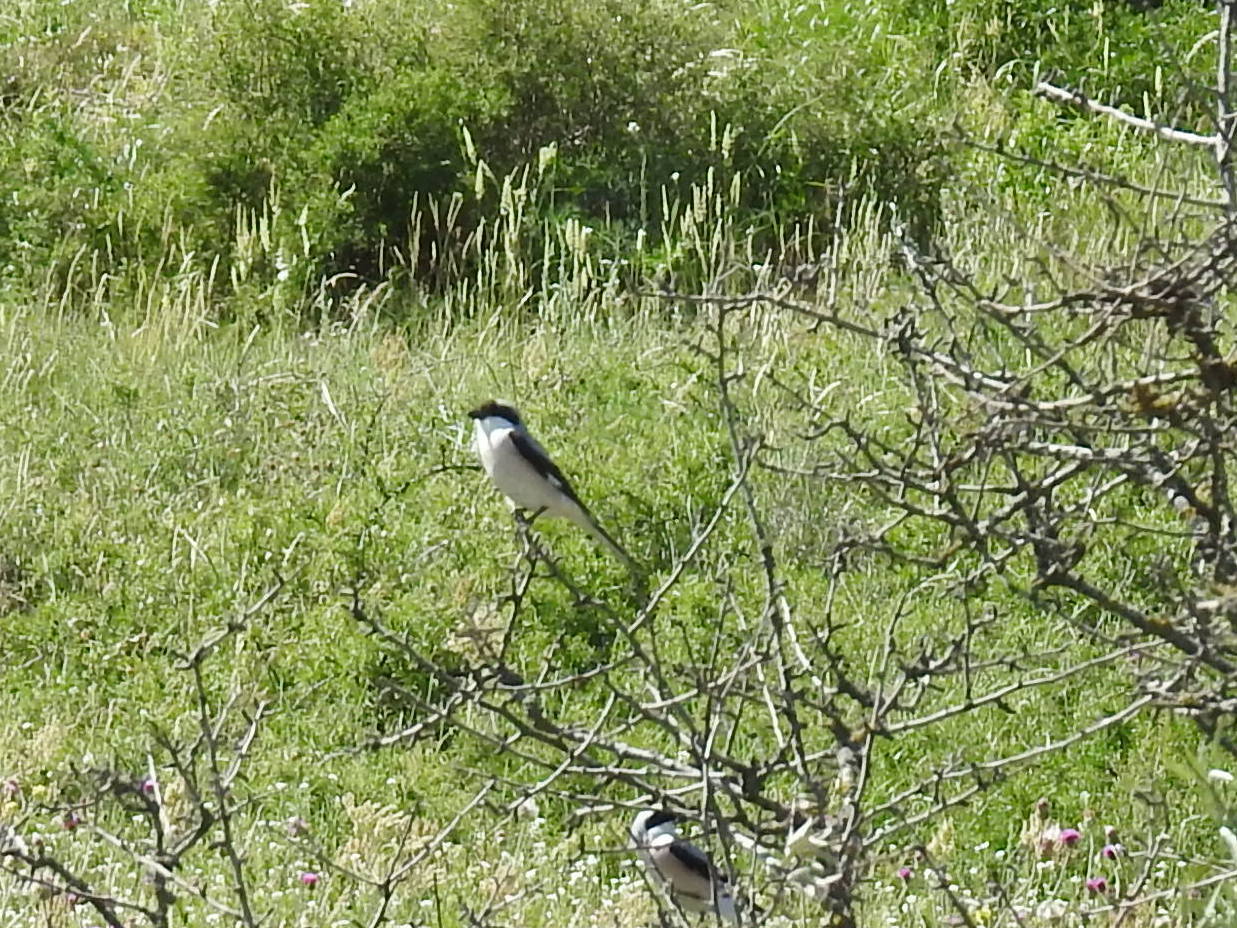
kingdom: Animalia
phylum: Chordata
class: Aves
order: Passeriformes
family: Laniidae
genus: Lanius
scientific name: Lanius minor
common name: Lesser grey shrike
